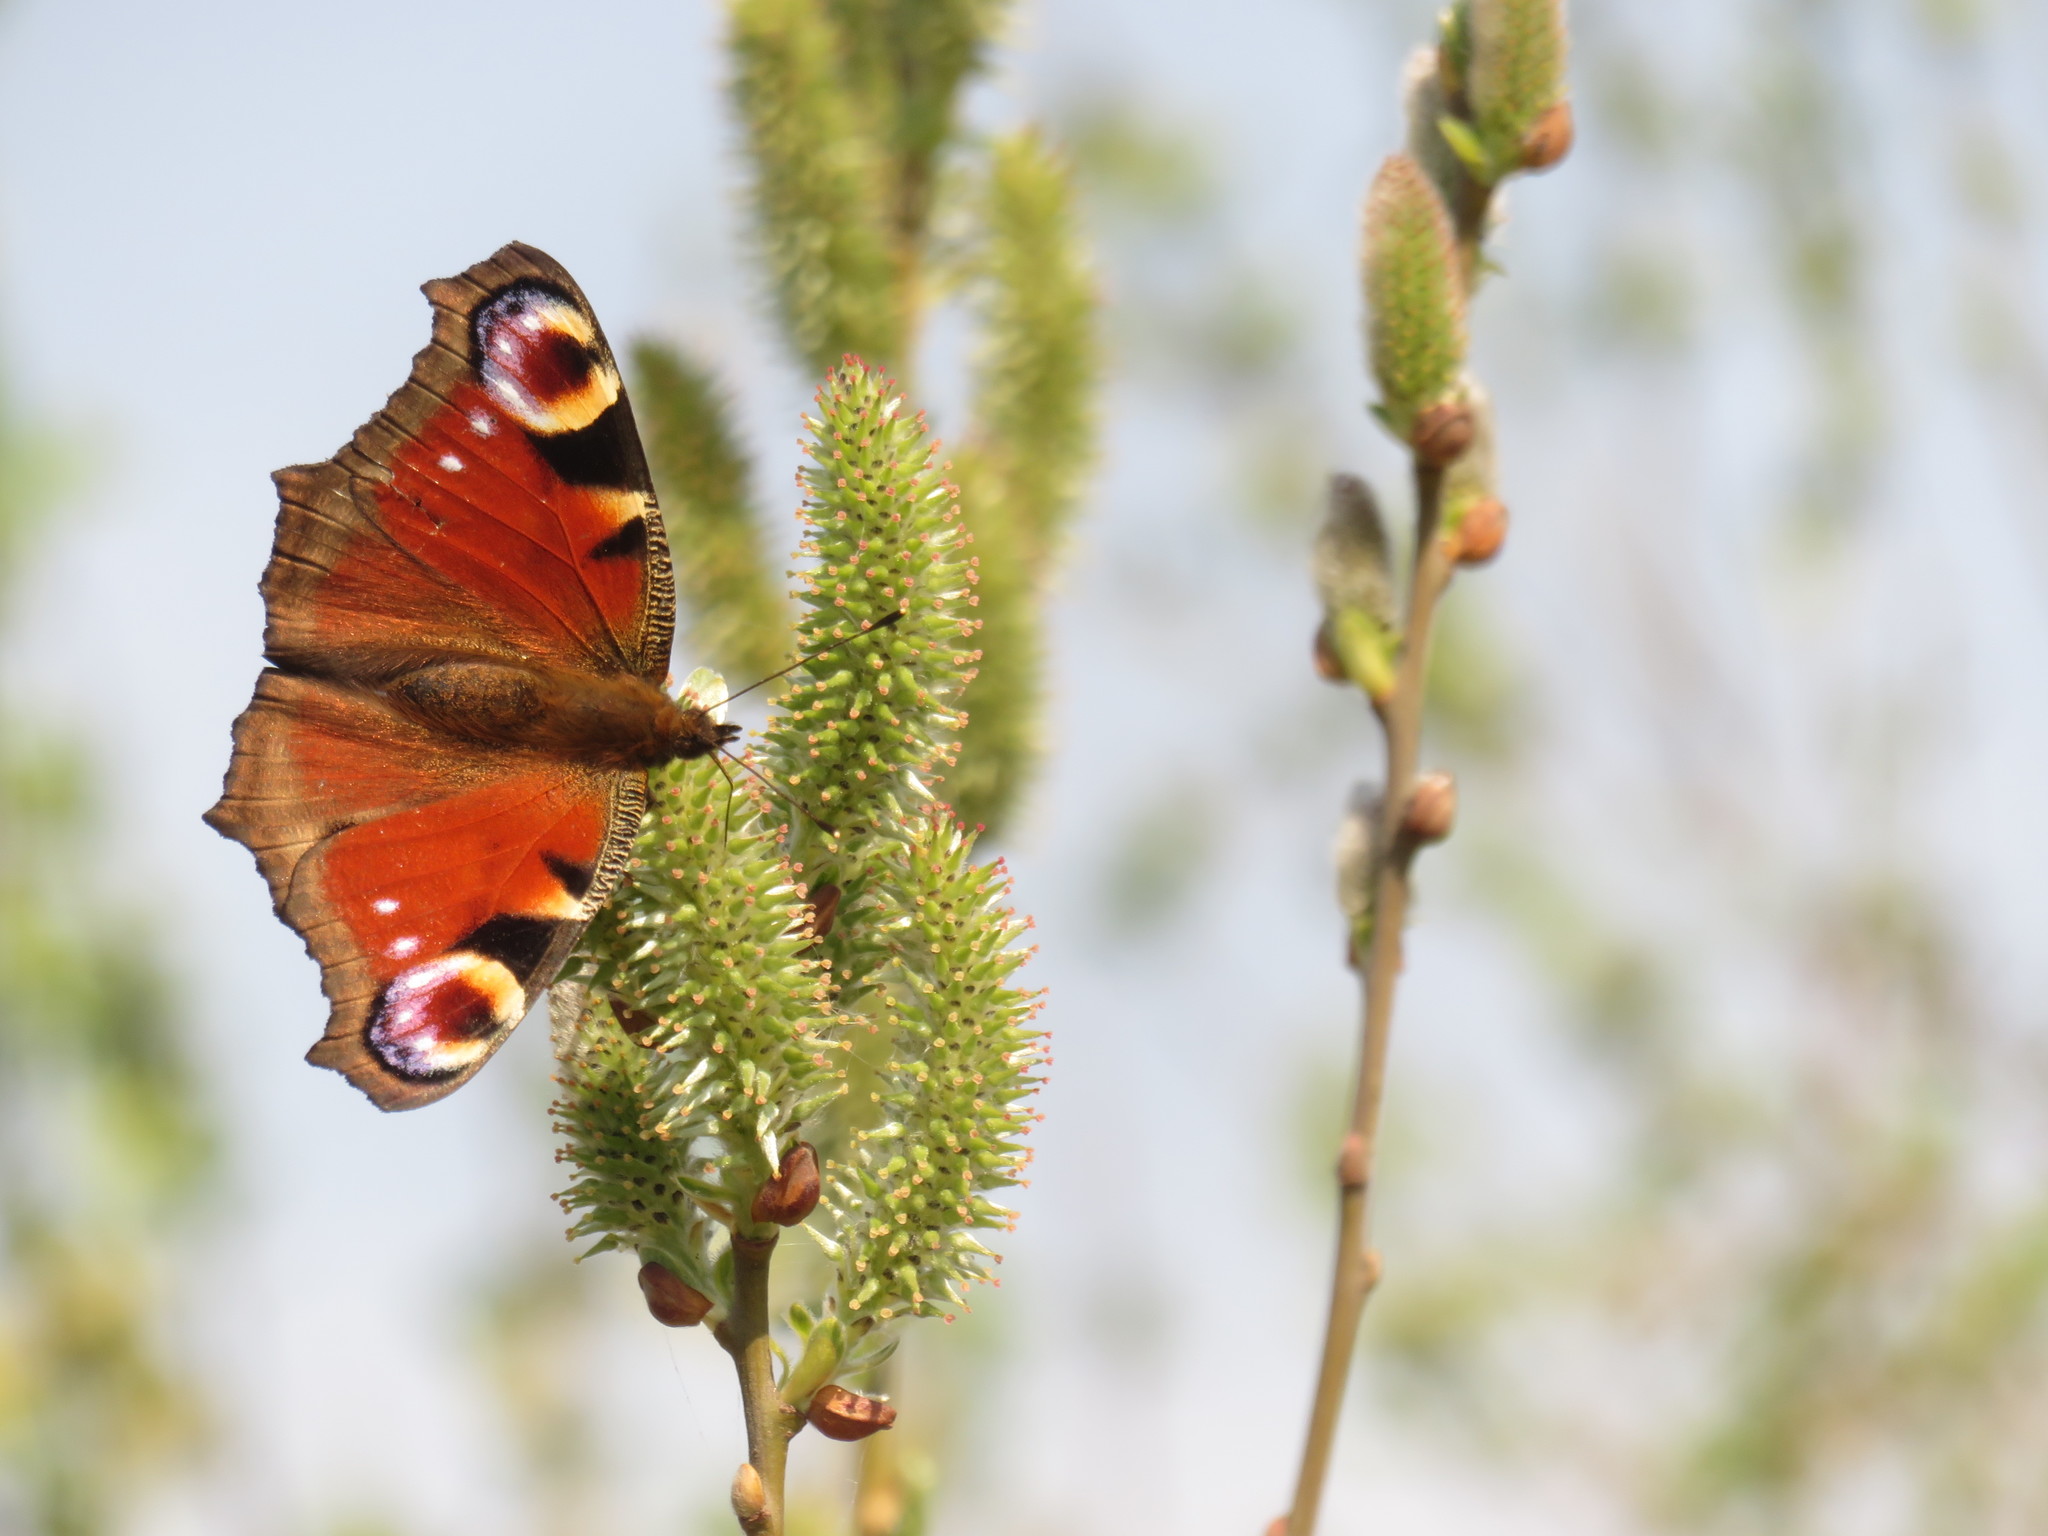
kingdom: Animalia
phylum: Arthropoda
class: Insecta
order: Lepidoptera
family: Nymphalidae
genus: Aglais
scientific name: Aglais io
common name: Peacock
